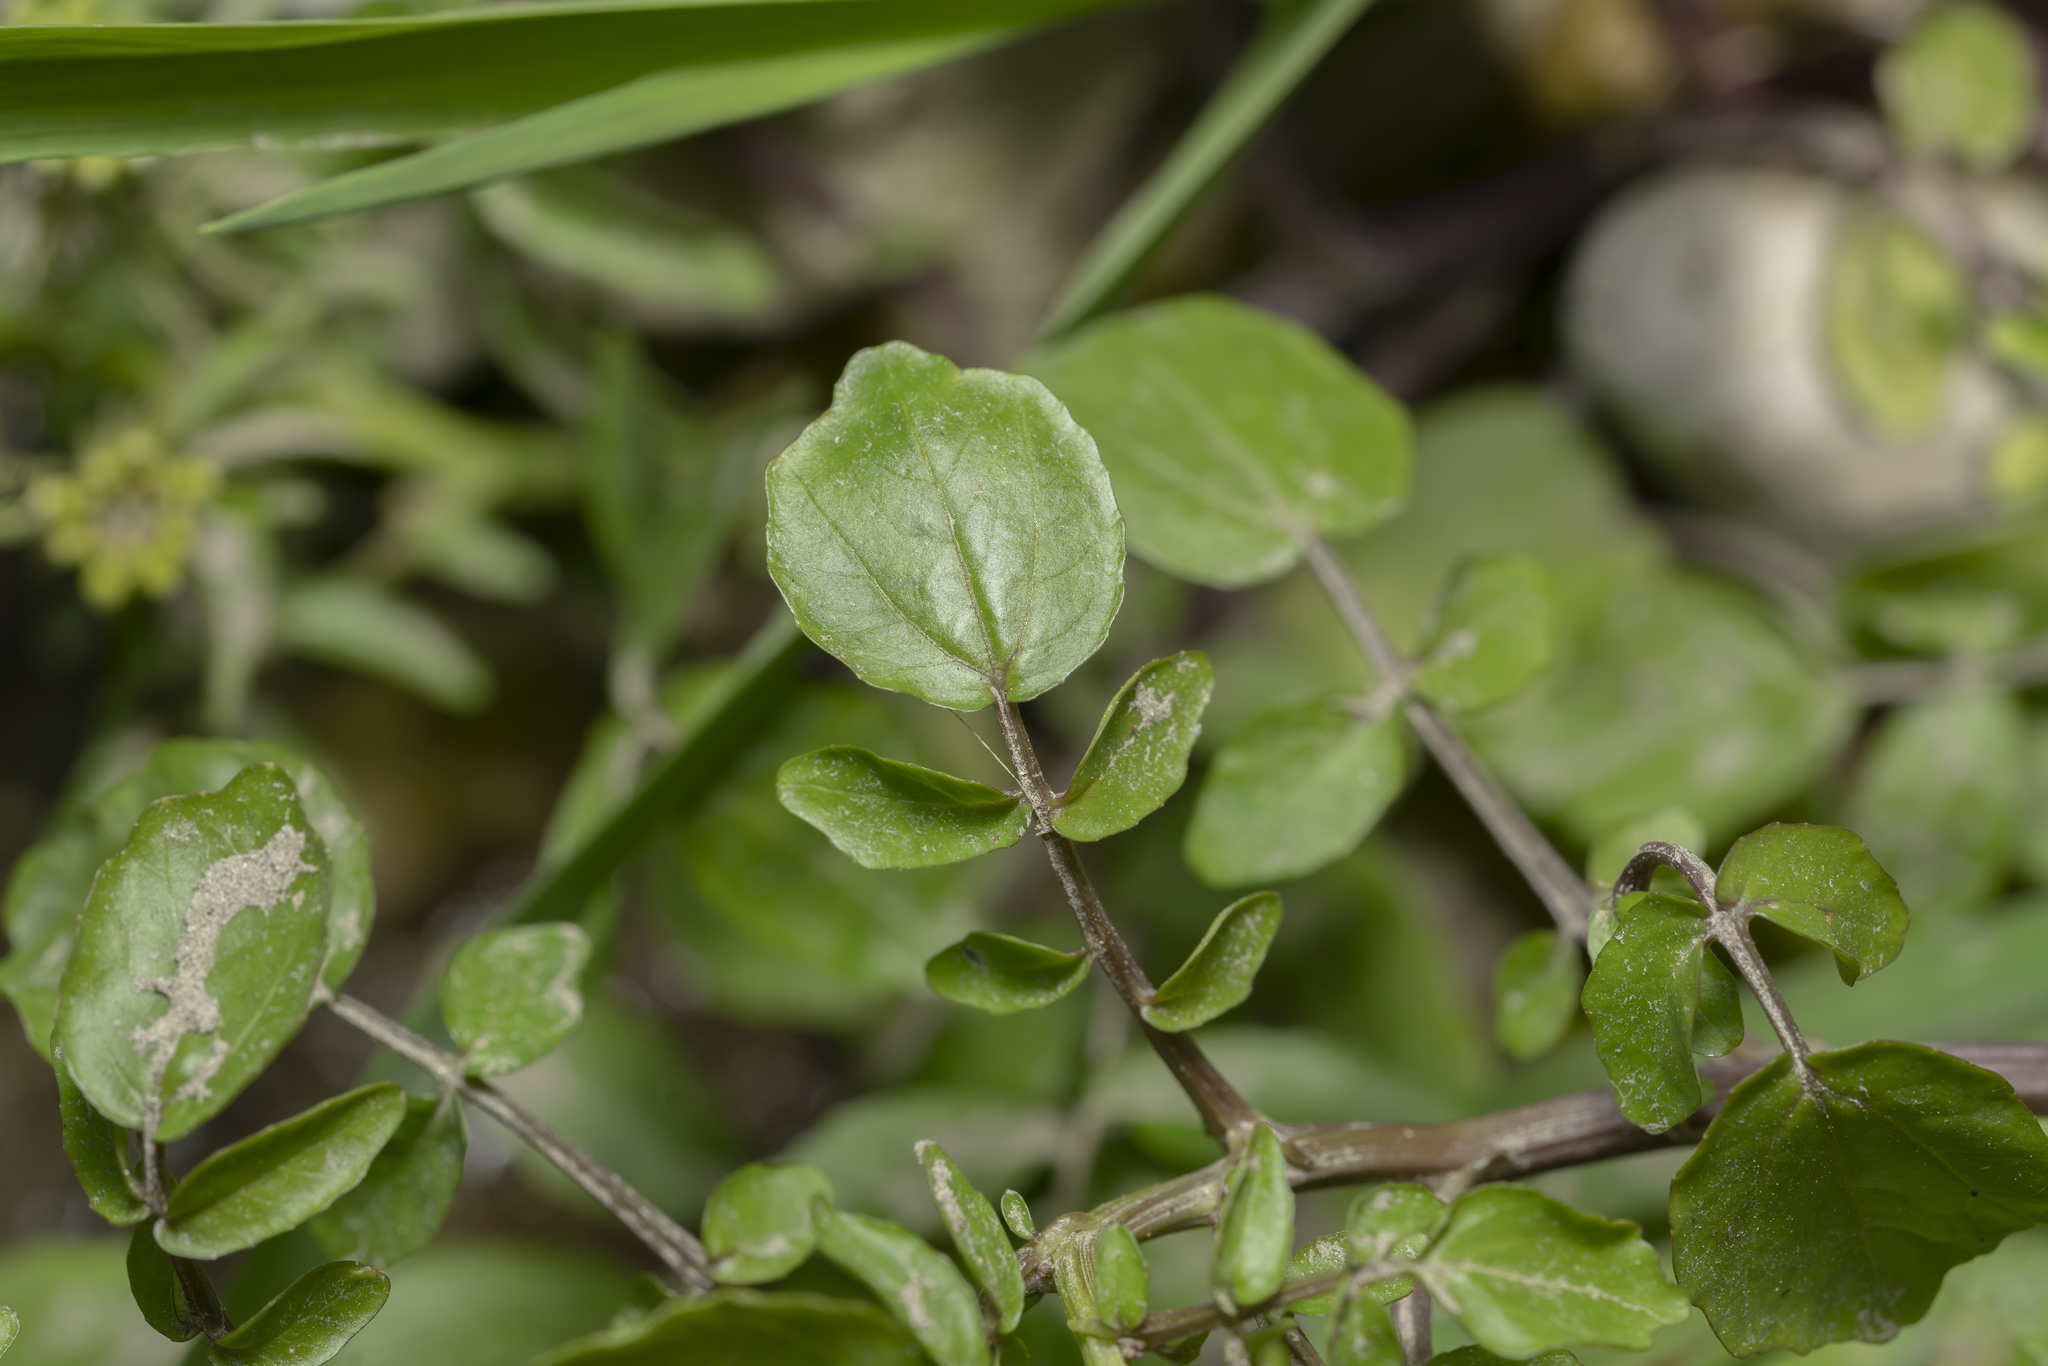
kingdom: Plantae
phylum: Tracheophyta
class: Magnoliopsida
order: Brassicales
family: Brassicaceae
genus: Nasturtium
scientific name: Nasturtium officinale
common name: Watercress
